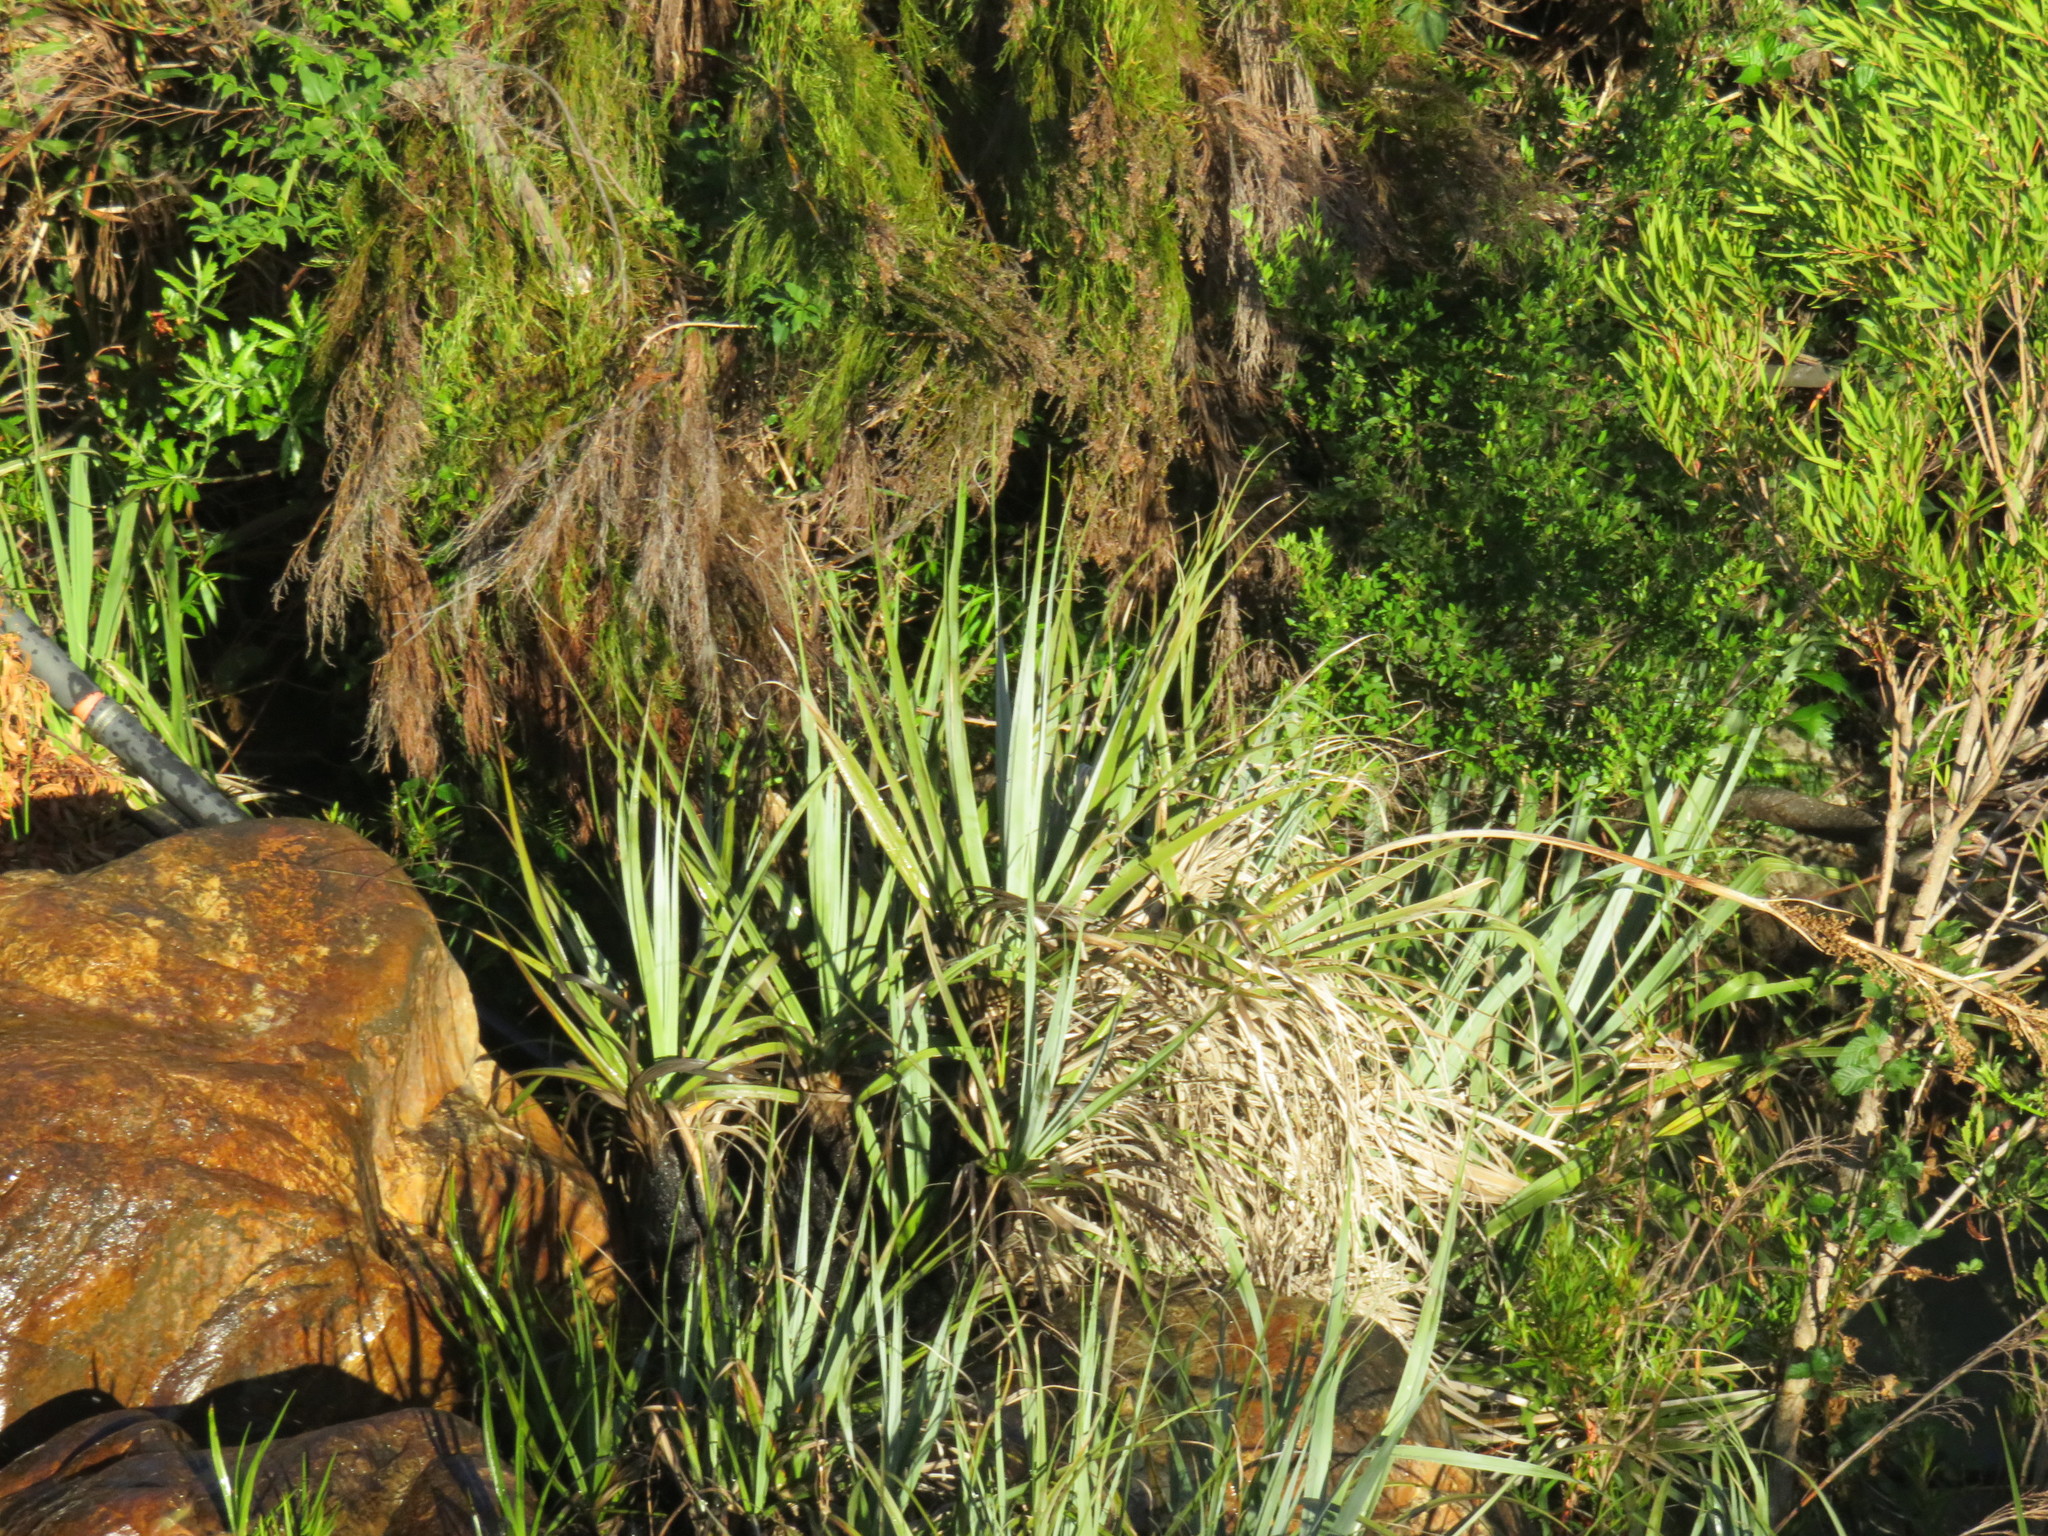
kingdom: Plantae
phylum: Tracheophyta
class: Liliopsida
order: Poales
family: Thurniaceae
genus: Prionium
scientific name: Prionium serratum
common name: Palmiet
